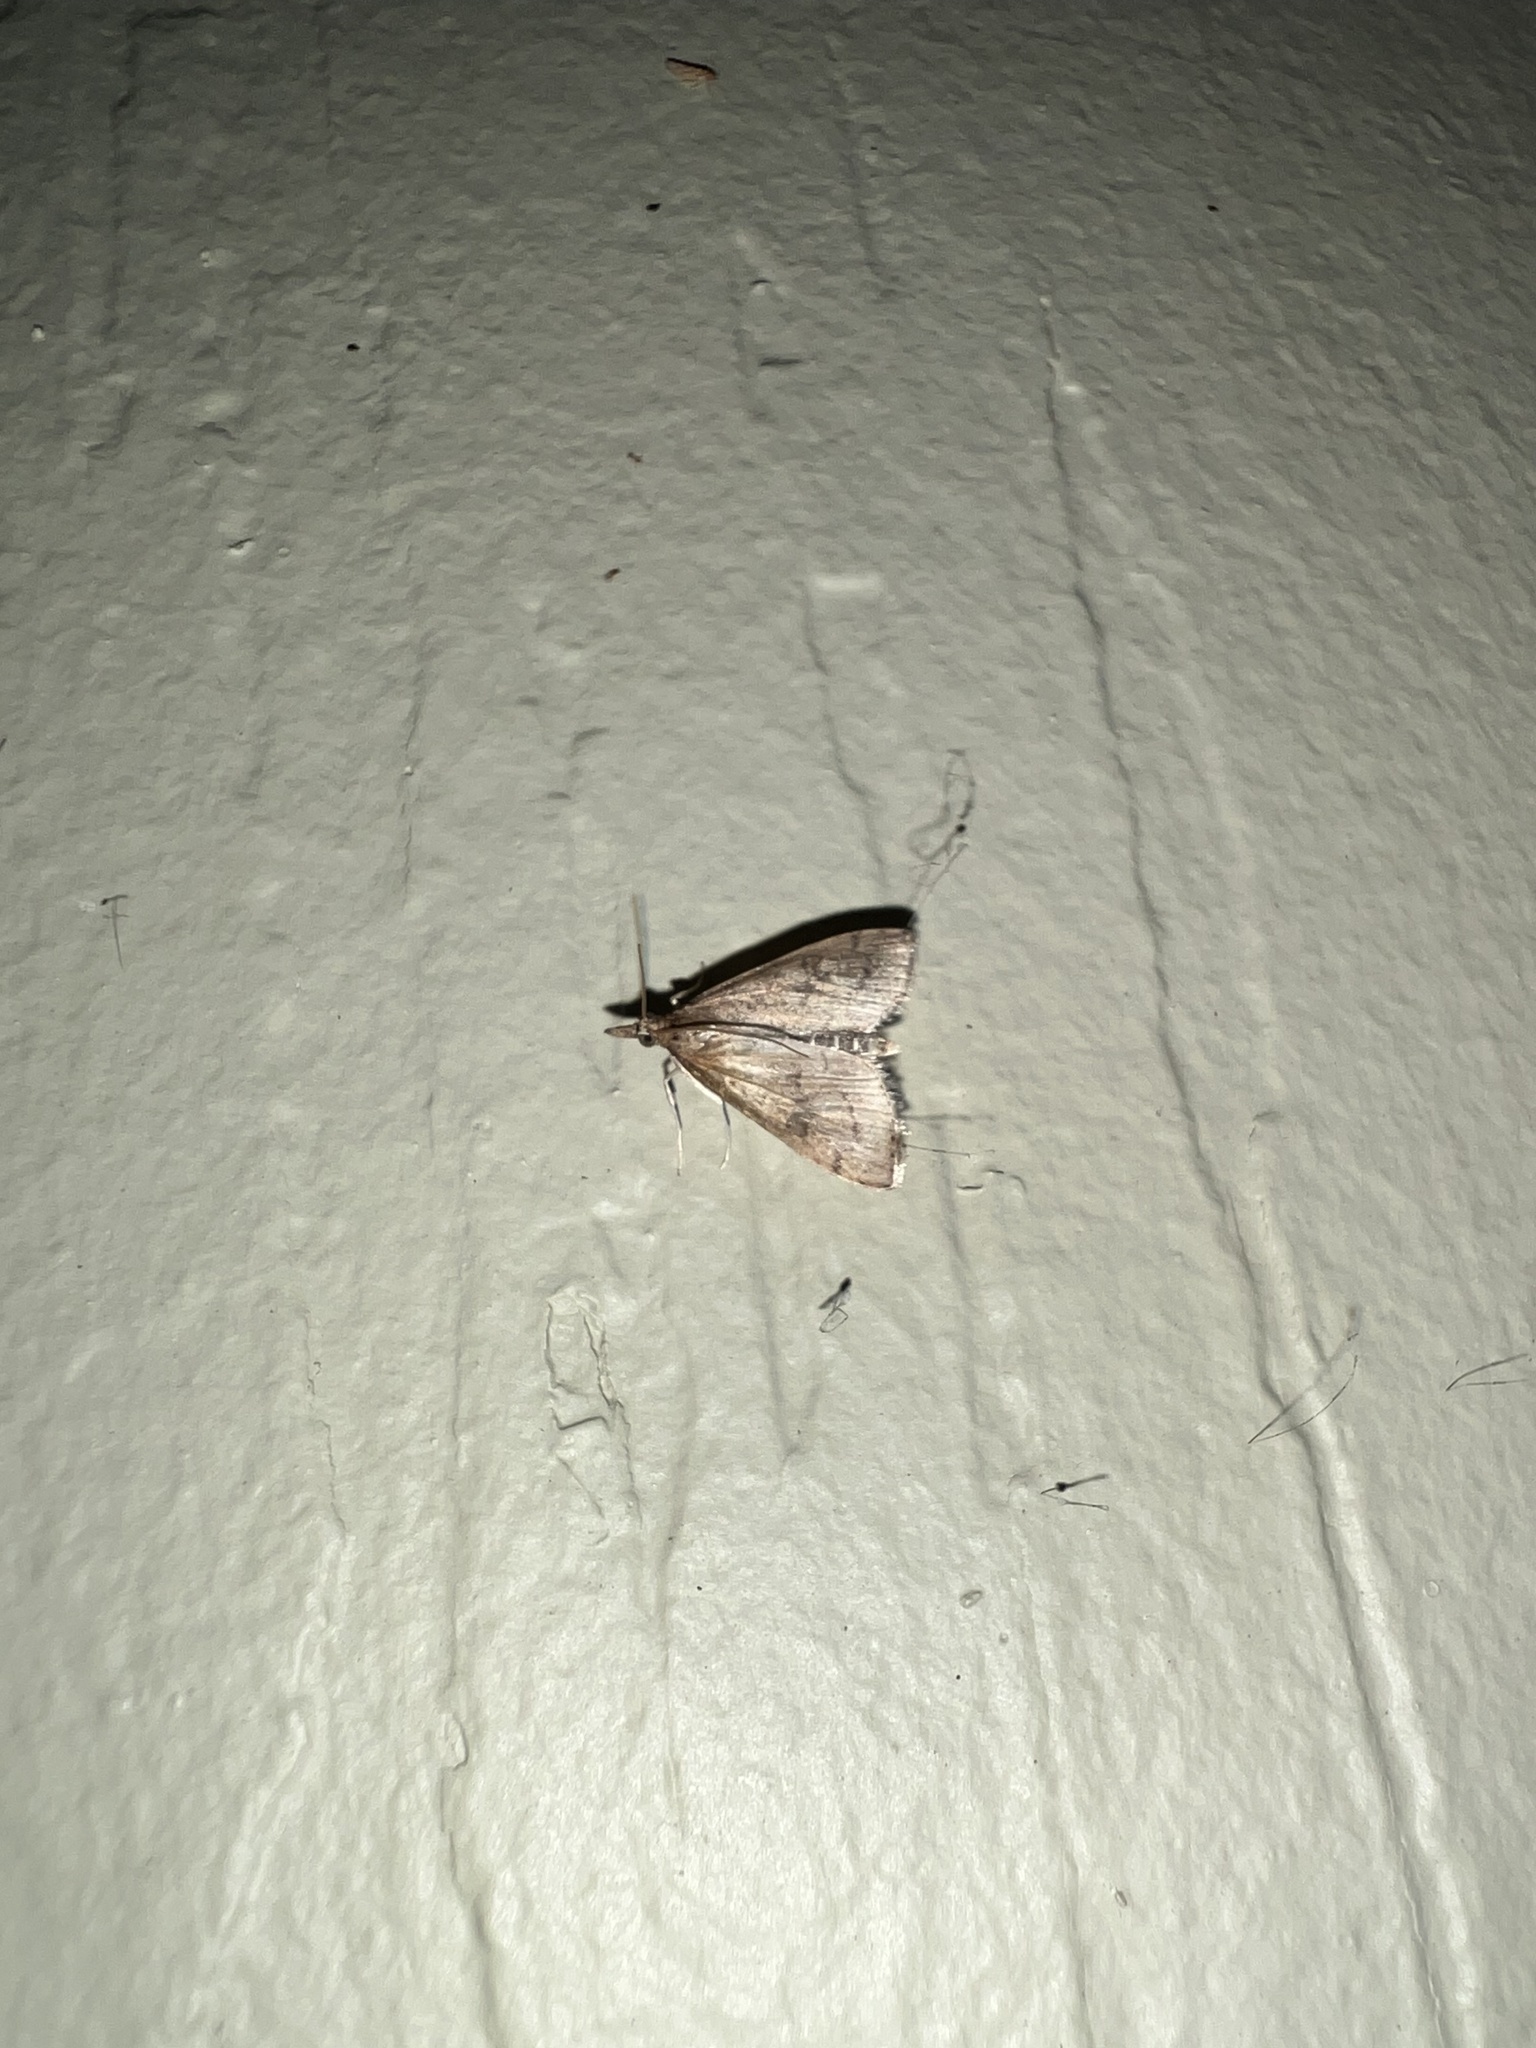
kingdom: Animalia
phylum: Arthropoda
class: Insecta
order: Lepidoptera
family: Crambidae
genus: Udea
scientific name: Udea rubigalis
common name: Celery leaftier moth
